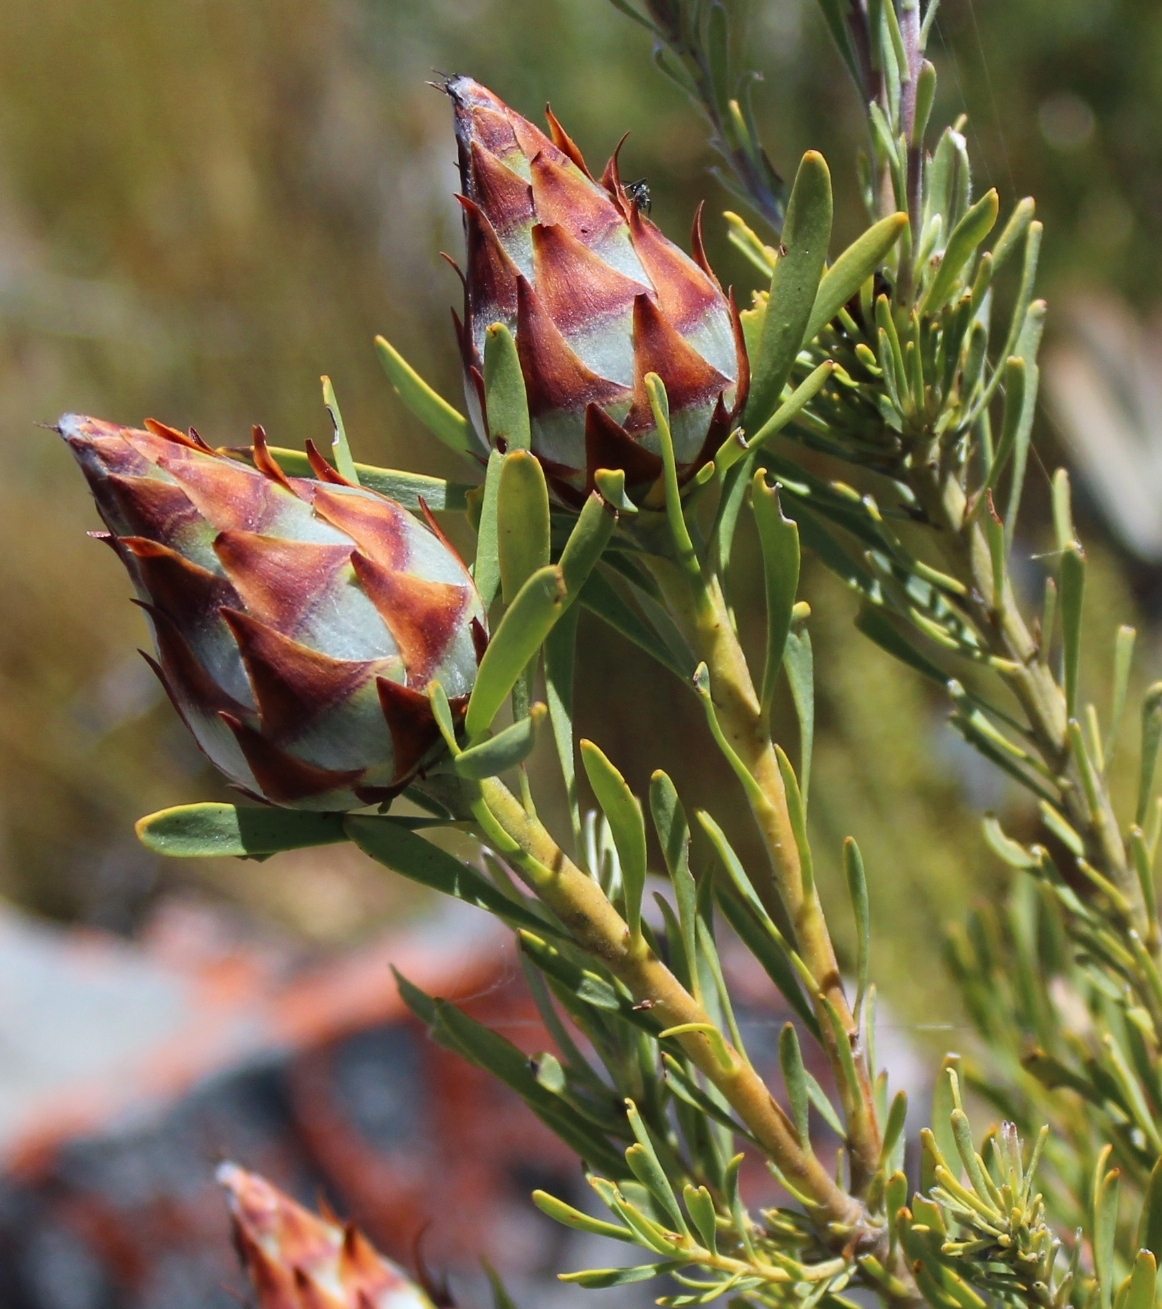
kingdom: Plantae
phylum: Tracheophyta
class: Magnoliopsida
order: Proteales
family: Proteaceae
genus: Leucadendron
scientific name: Leucadendron rubrum
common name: Spinning top
